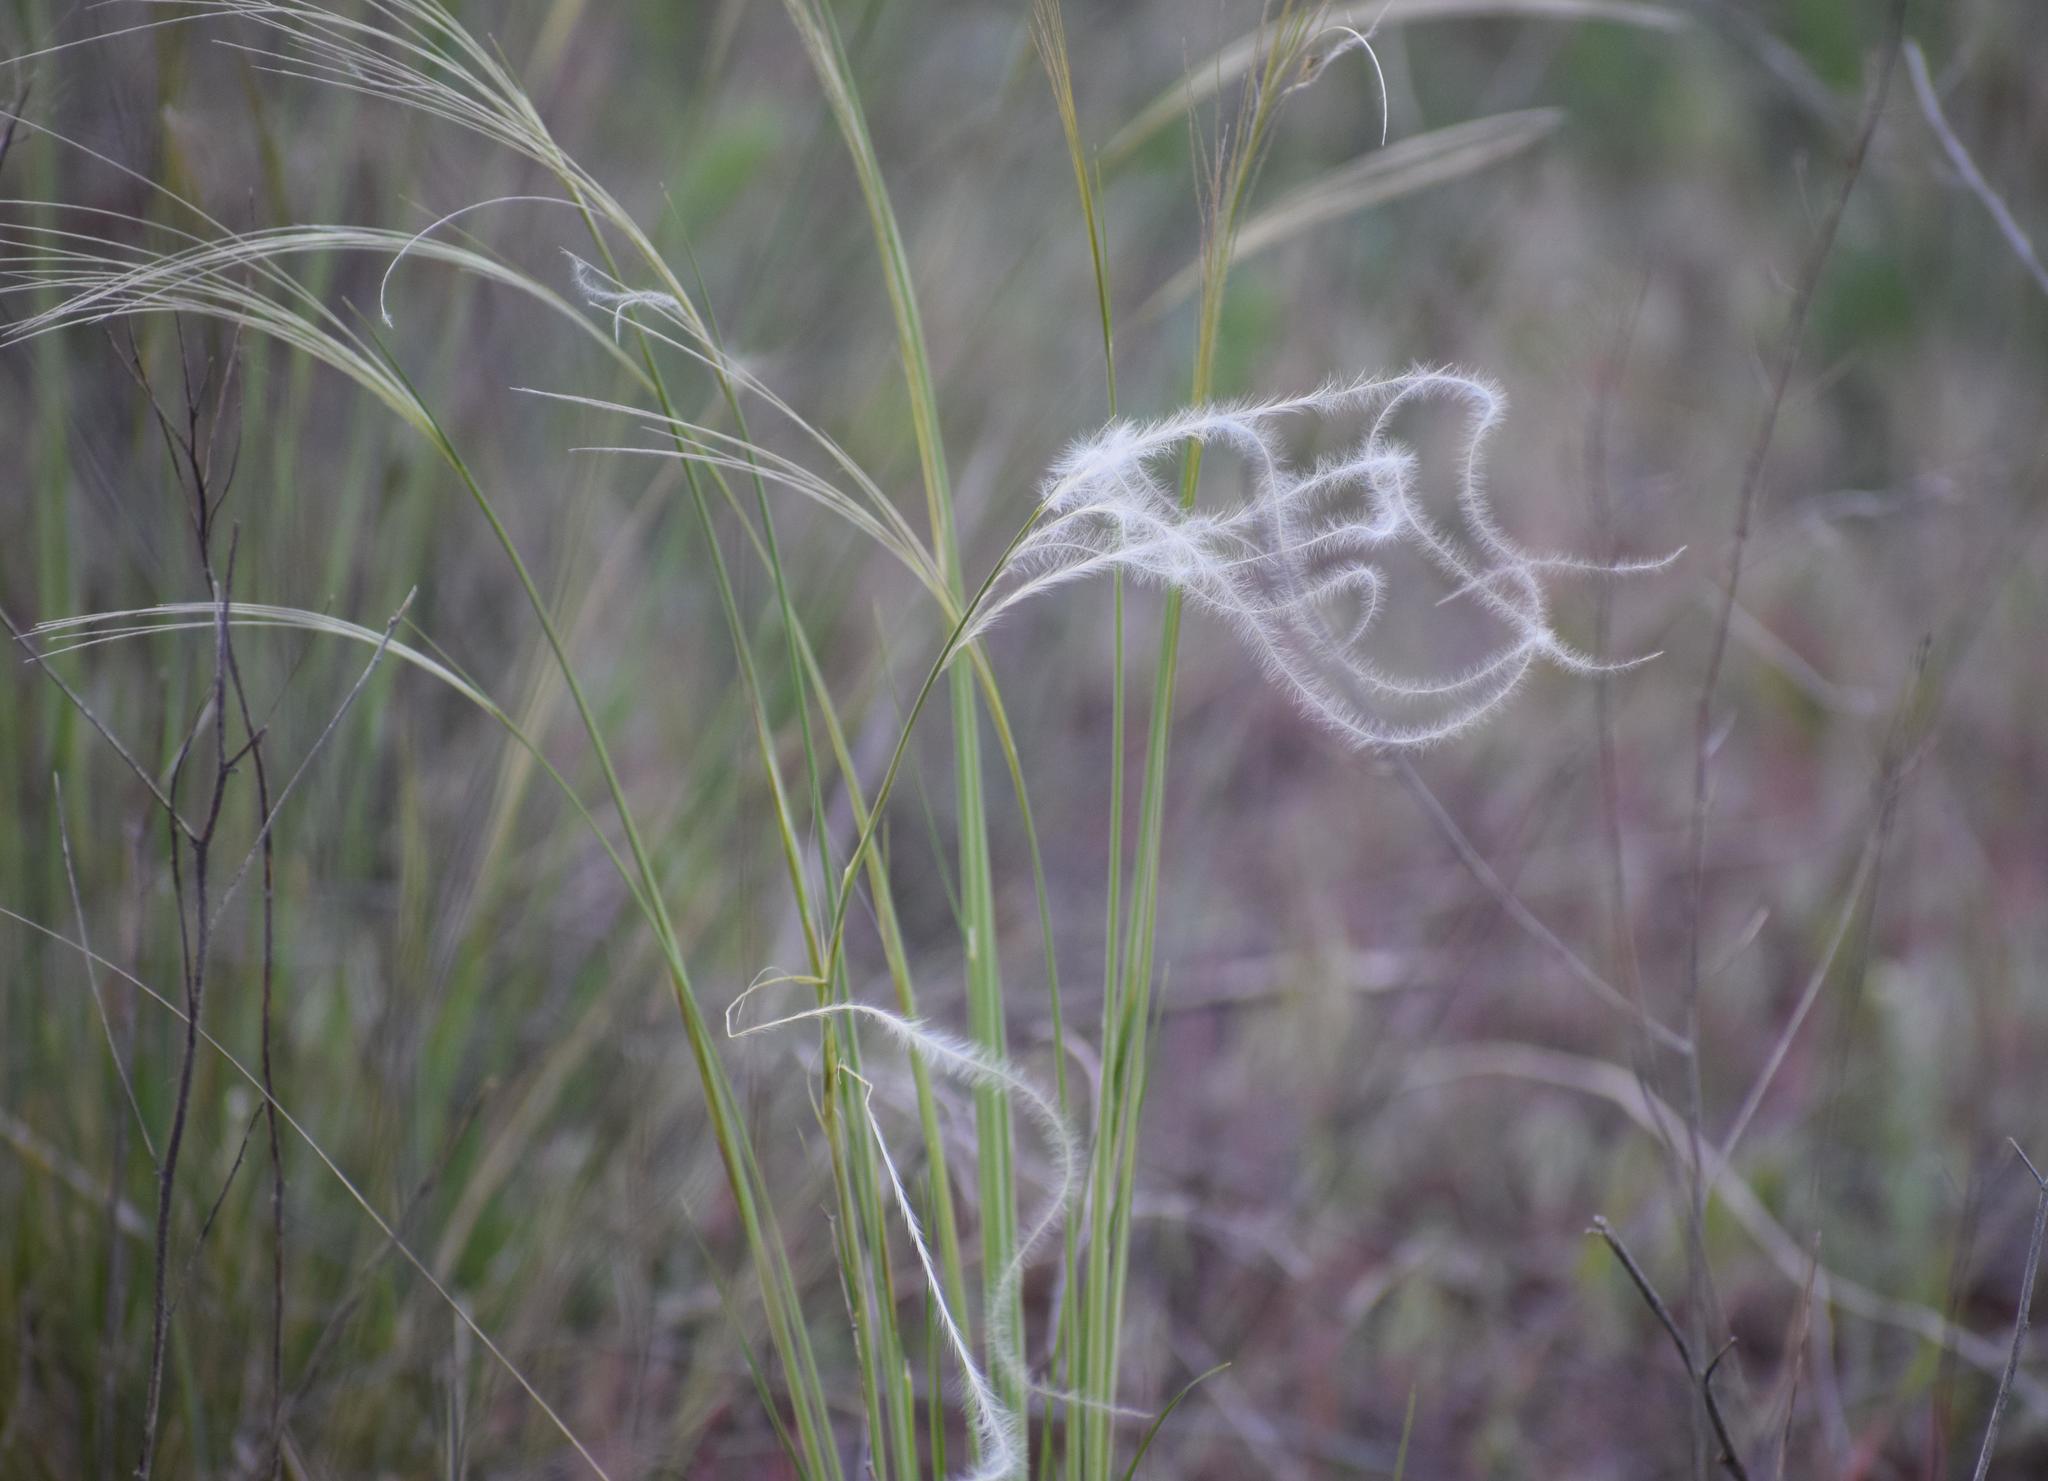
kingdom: Plantae
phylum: Tracheophyta
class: Liliopsida
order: Poales
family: Poaceae
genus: Stipa
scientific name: Stipa pennata
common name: European feather grass
